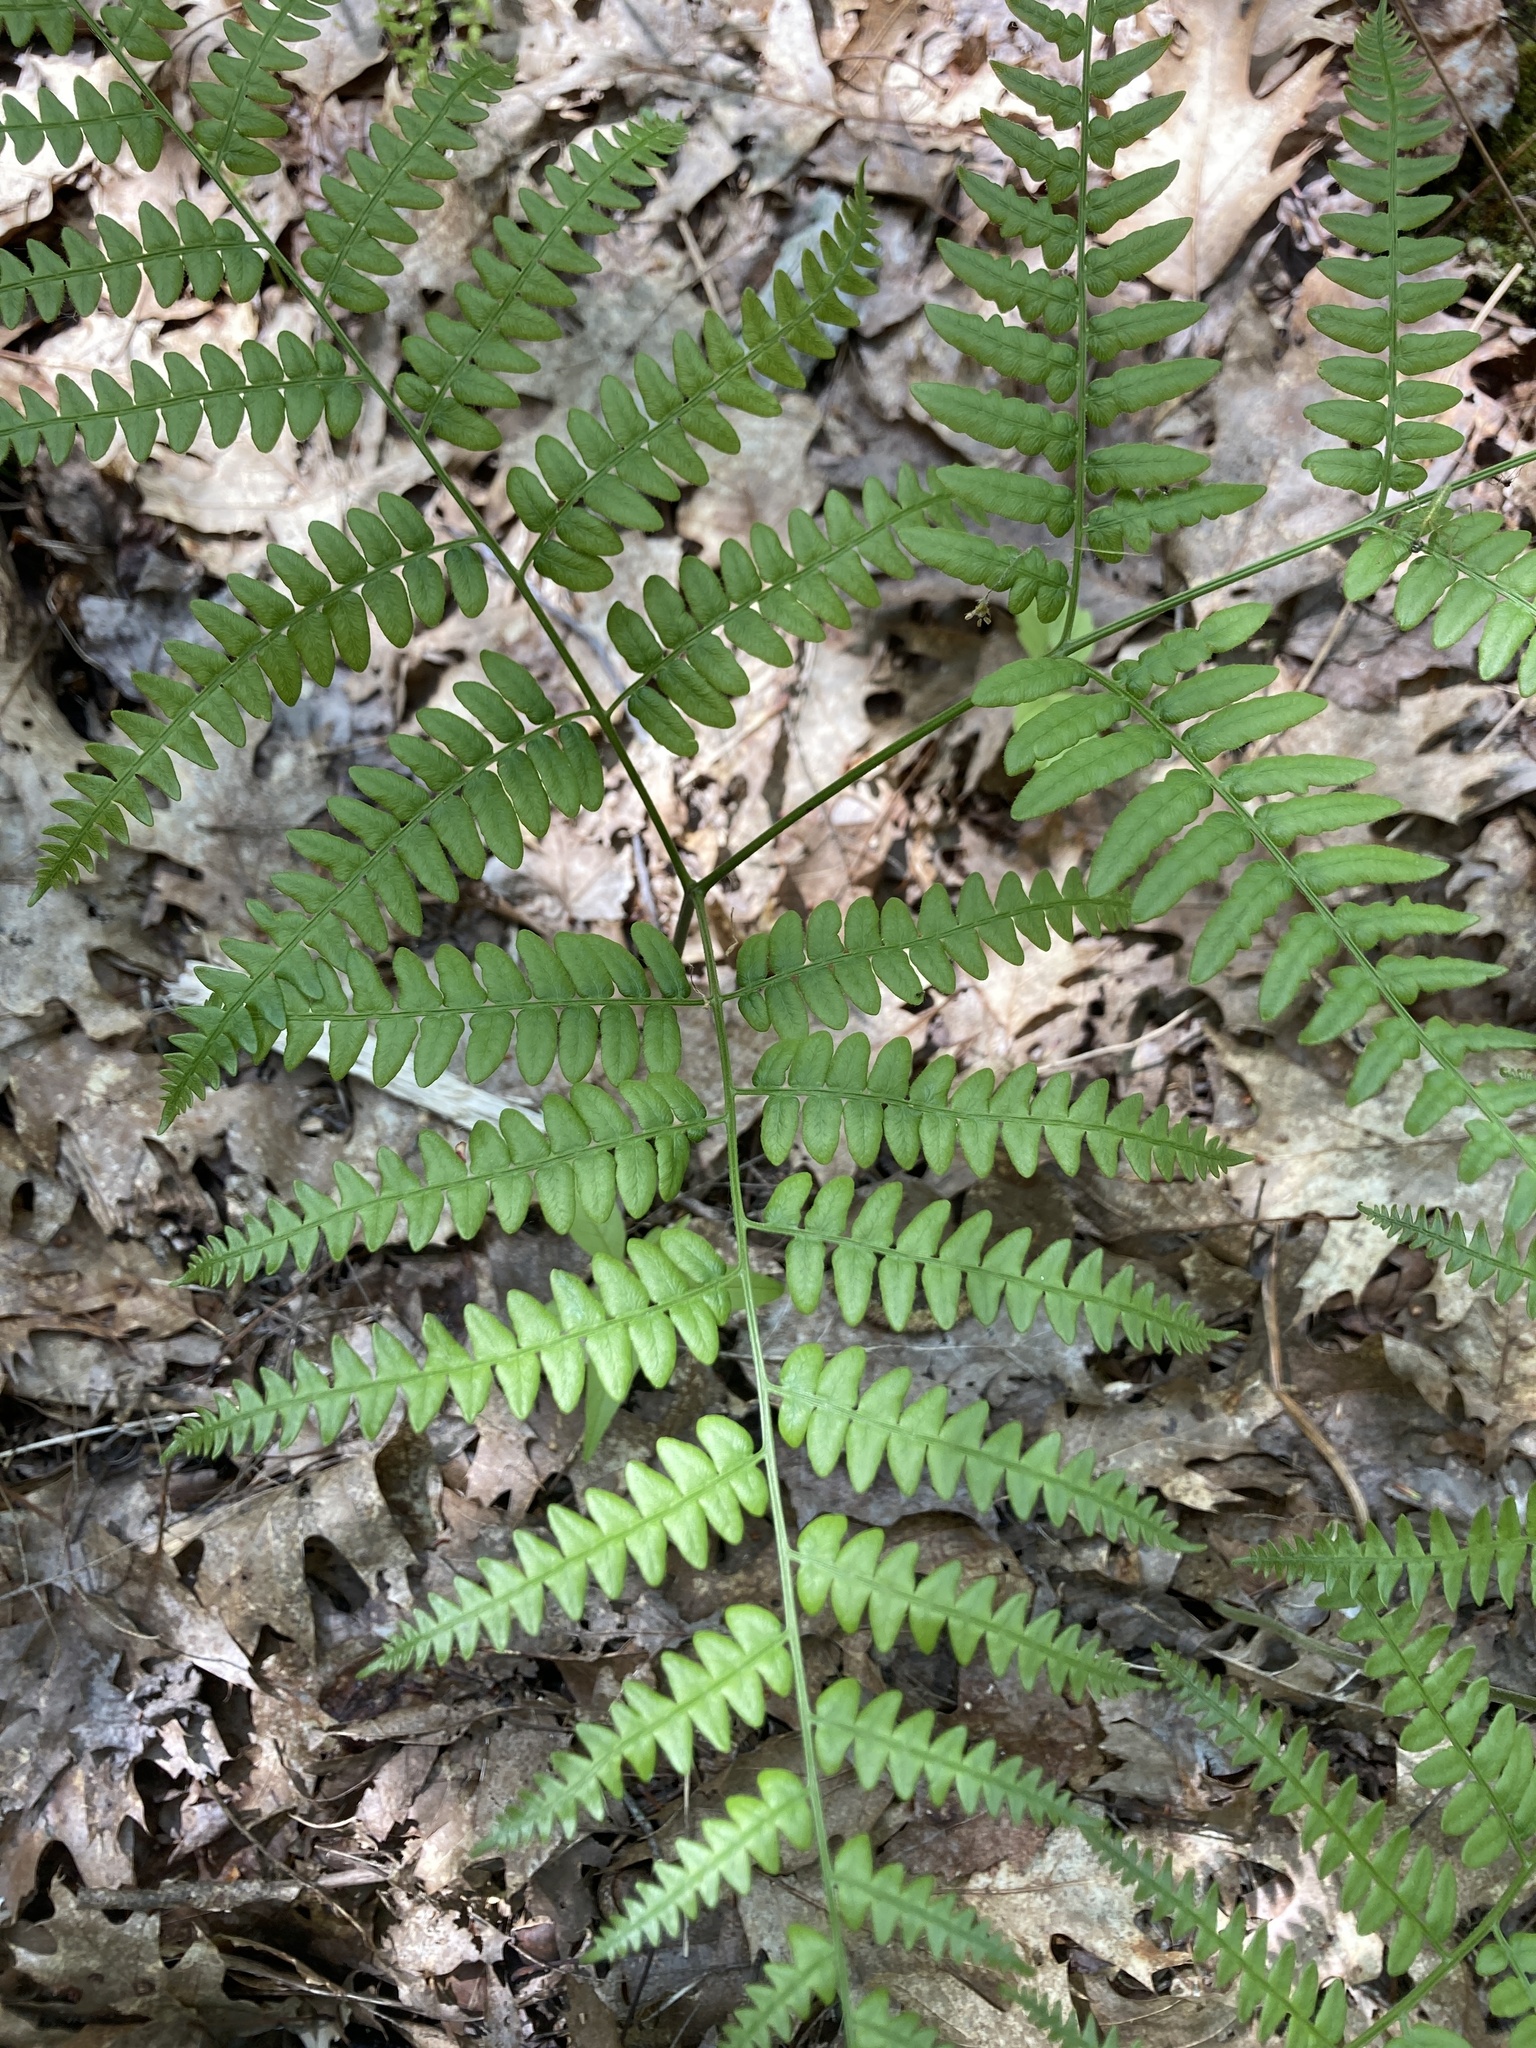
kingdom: Plantae
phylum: Tracheophyta
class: Polypodiopsida
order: Polypodiales
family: Dennstaedtiaceae
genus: Pteridium
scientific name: Pteridium aquilinum
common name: Bracken
